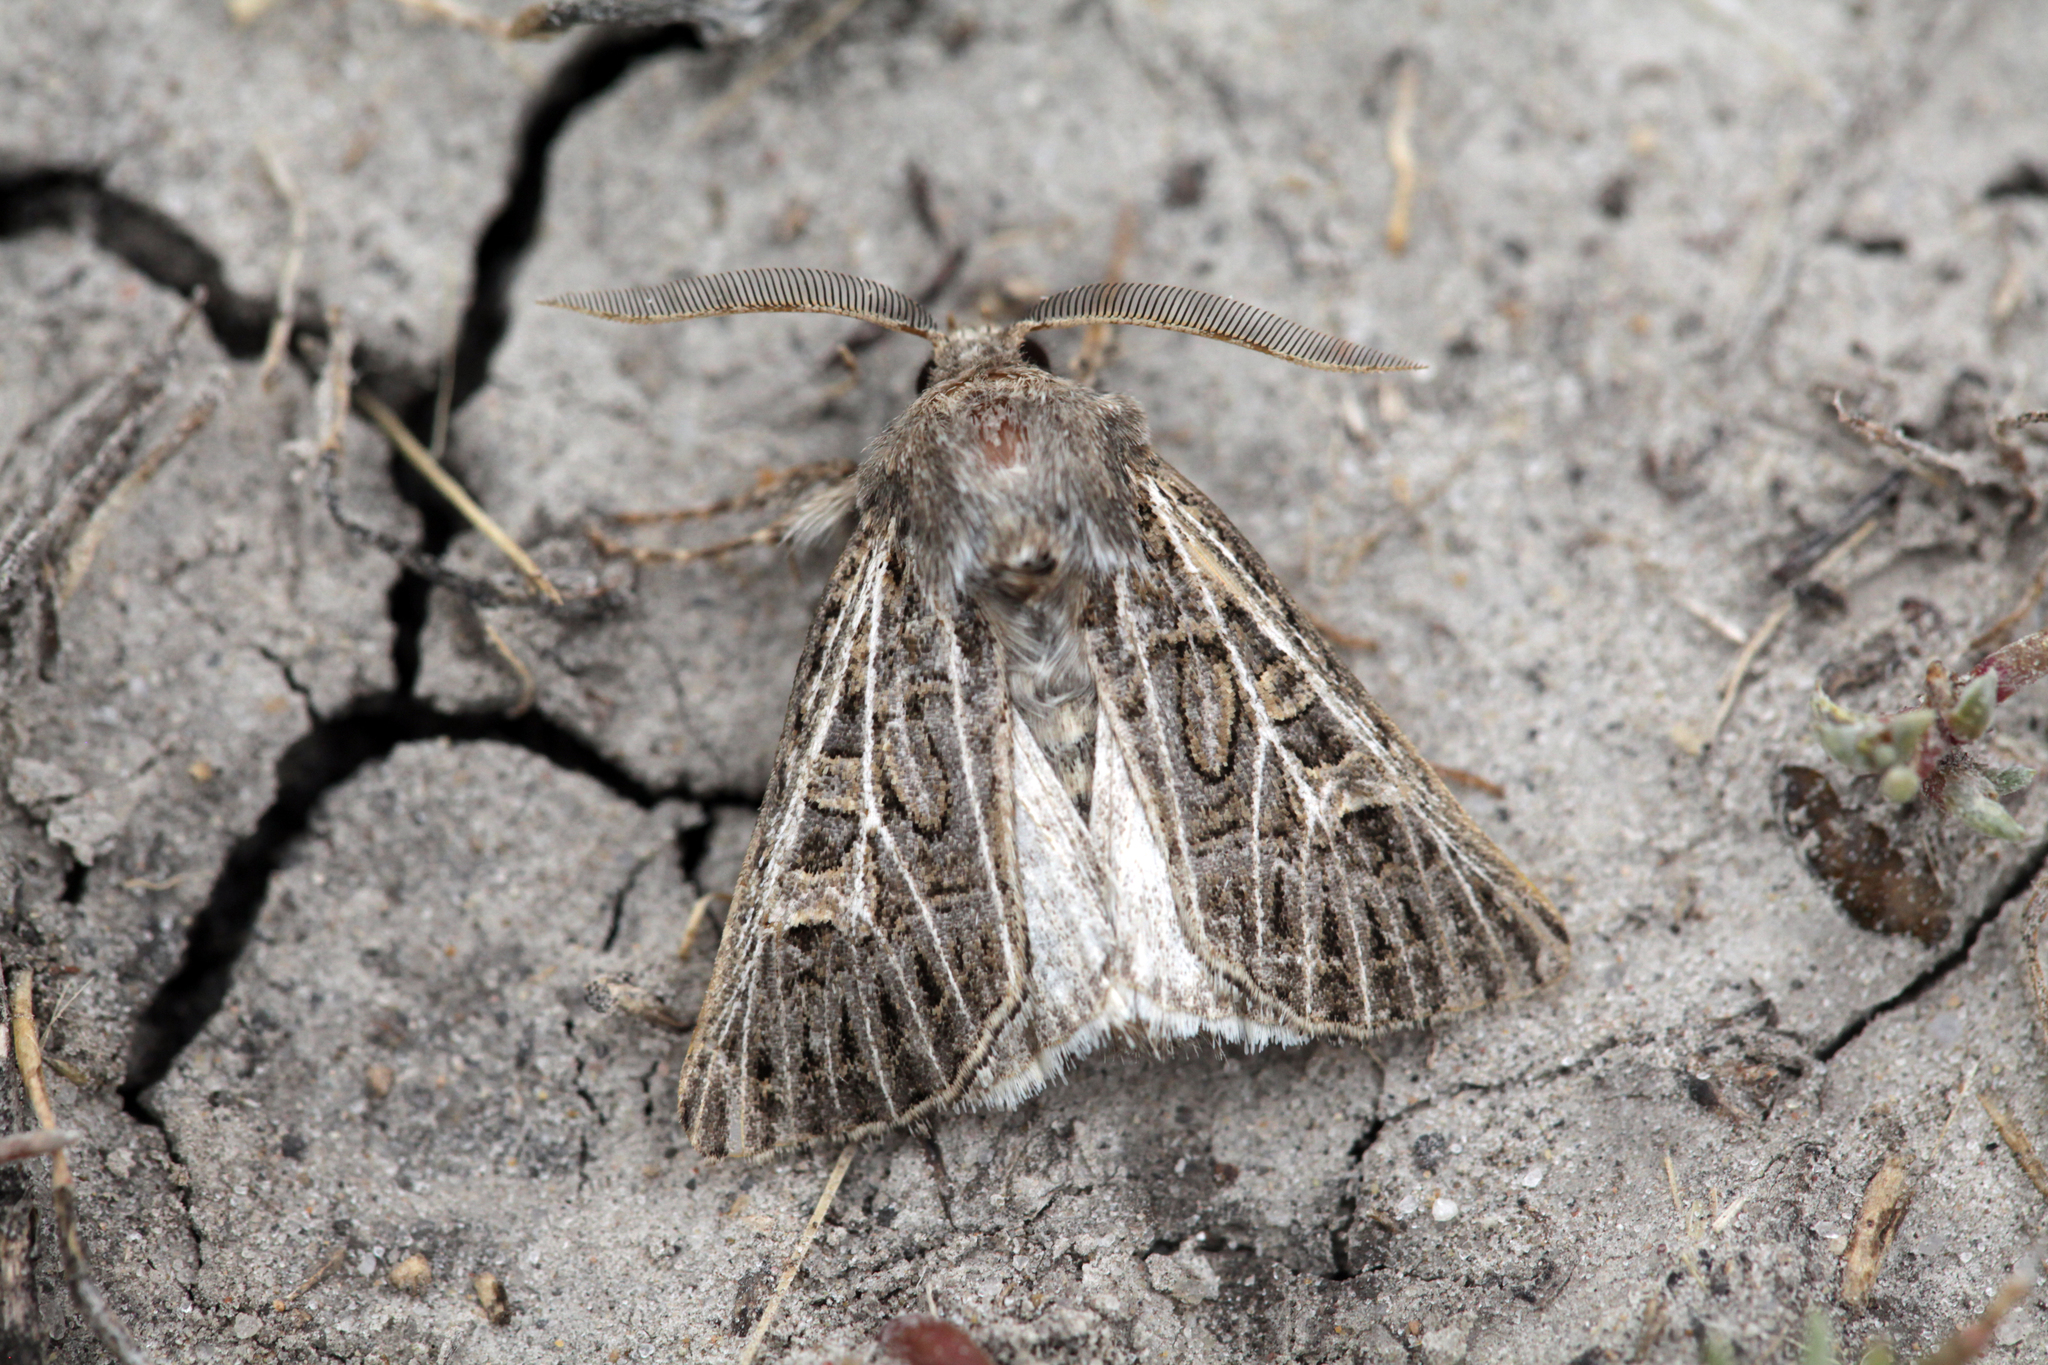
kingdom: Animalia
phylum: Arthropoda
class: Insecta
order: Lepidoptera
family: Noctuidae
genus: Tholera
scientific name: Tholera hilaris
